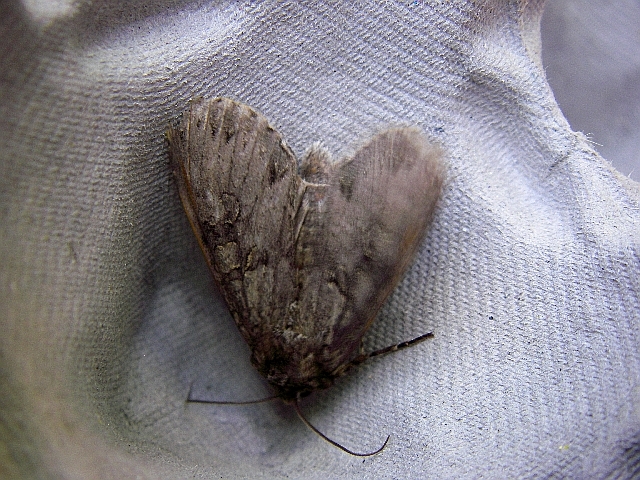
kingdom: Animalia
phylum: Arthropoda
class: Insecta
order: Lepidoptera
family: Noctuidae
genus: Polia
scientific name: Polia nebulosa
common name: Grey arches
